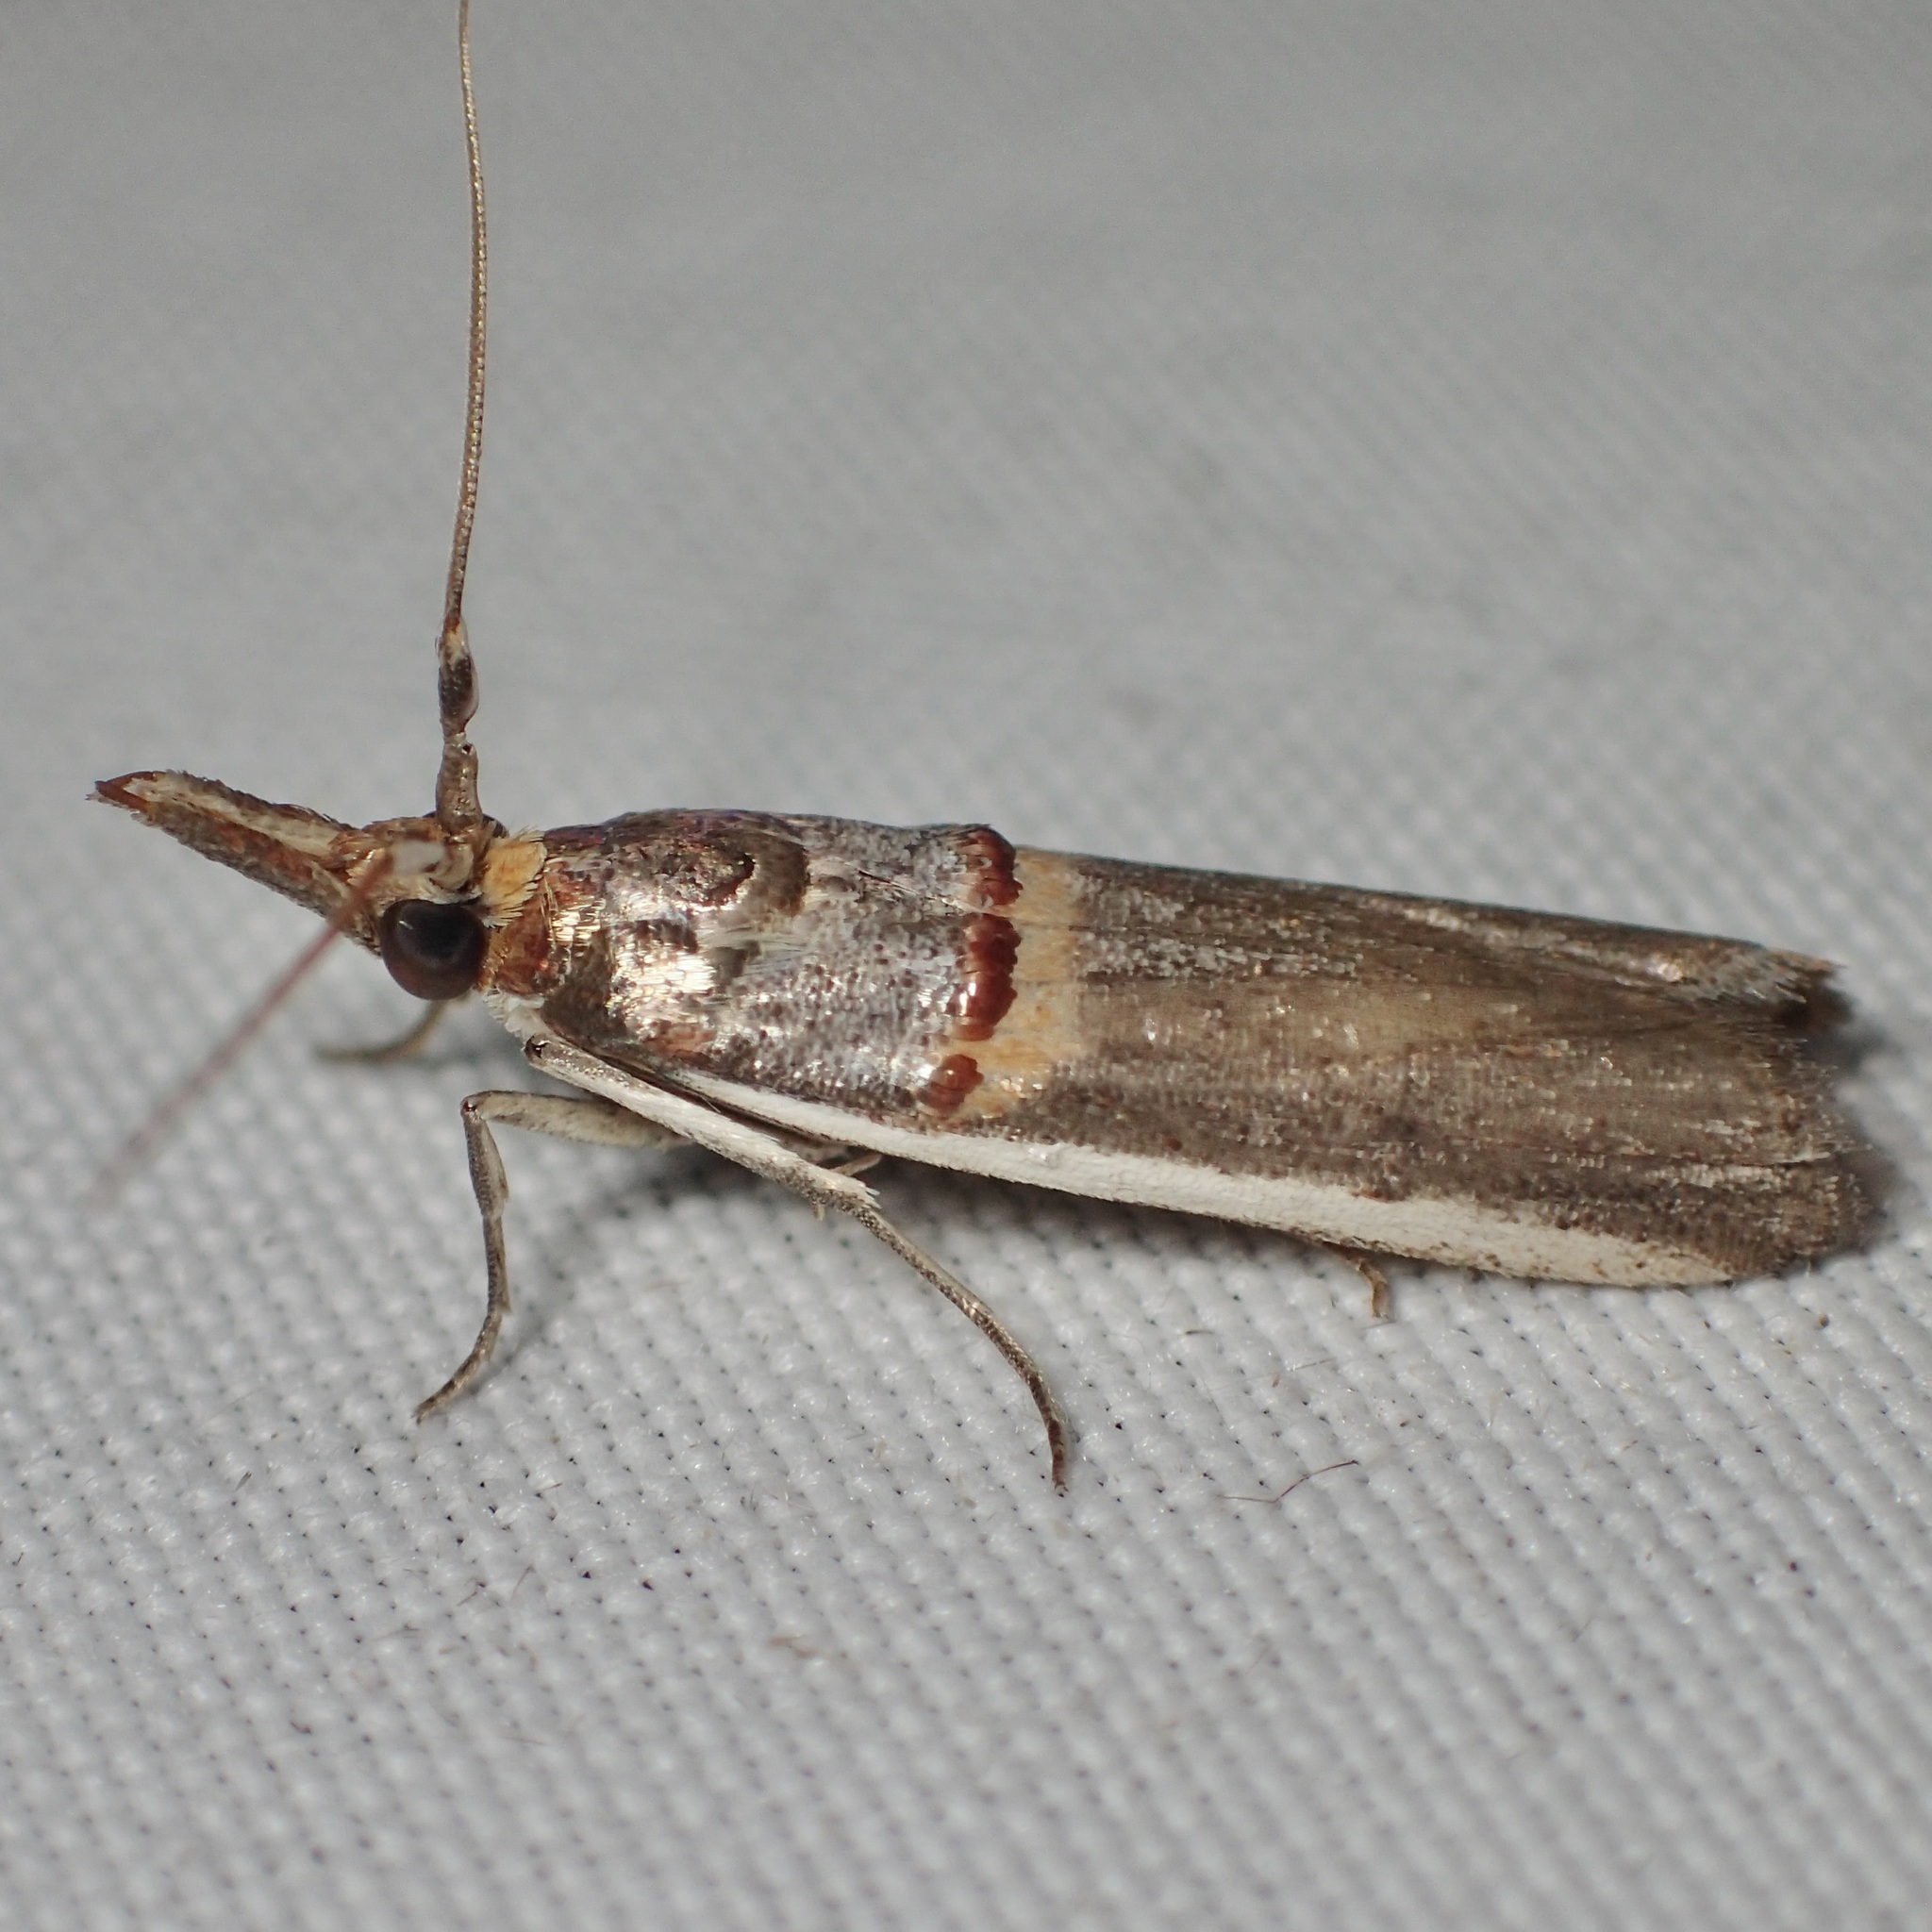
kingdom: Animalia
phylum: Arthropoda
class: Insecta
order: Lepidoptera
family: Pyralidae
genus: Etiella
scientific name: Etiella zinckenella
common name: Gold-banded etiella moth
